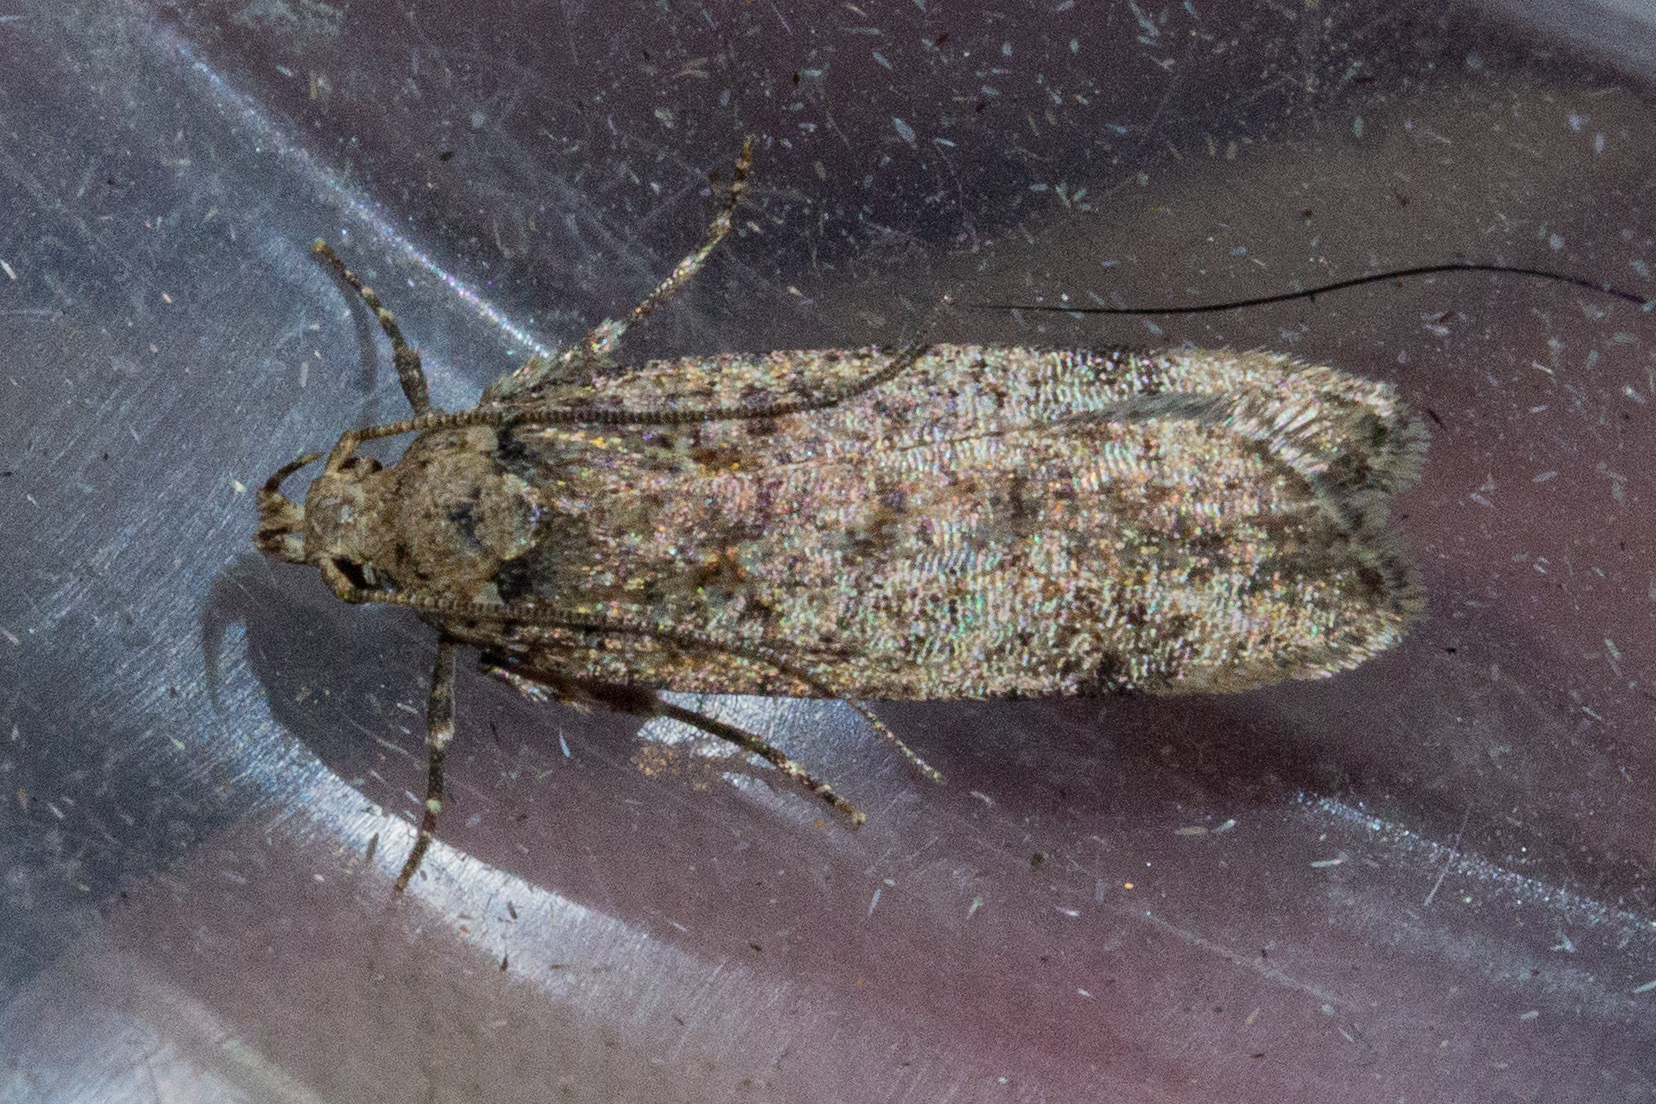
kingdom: Animalia
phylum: Arthropoda
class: Insecta
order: Lepidoptera
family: Gelechiidae
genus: Platyedra
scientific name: Platyedra subcinerea
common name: Moth
